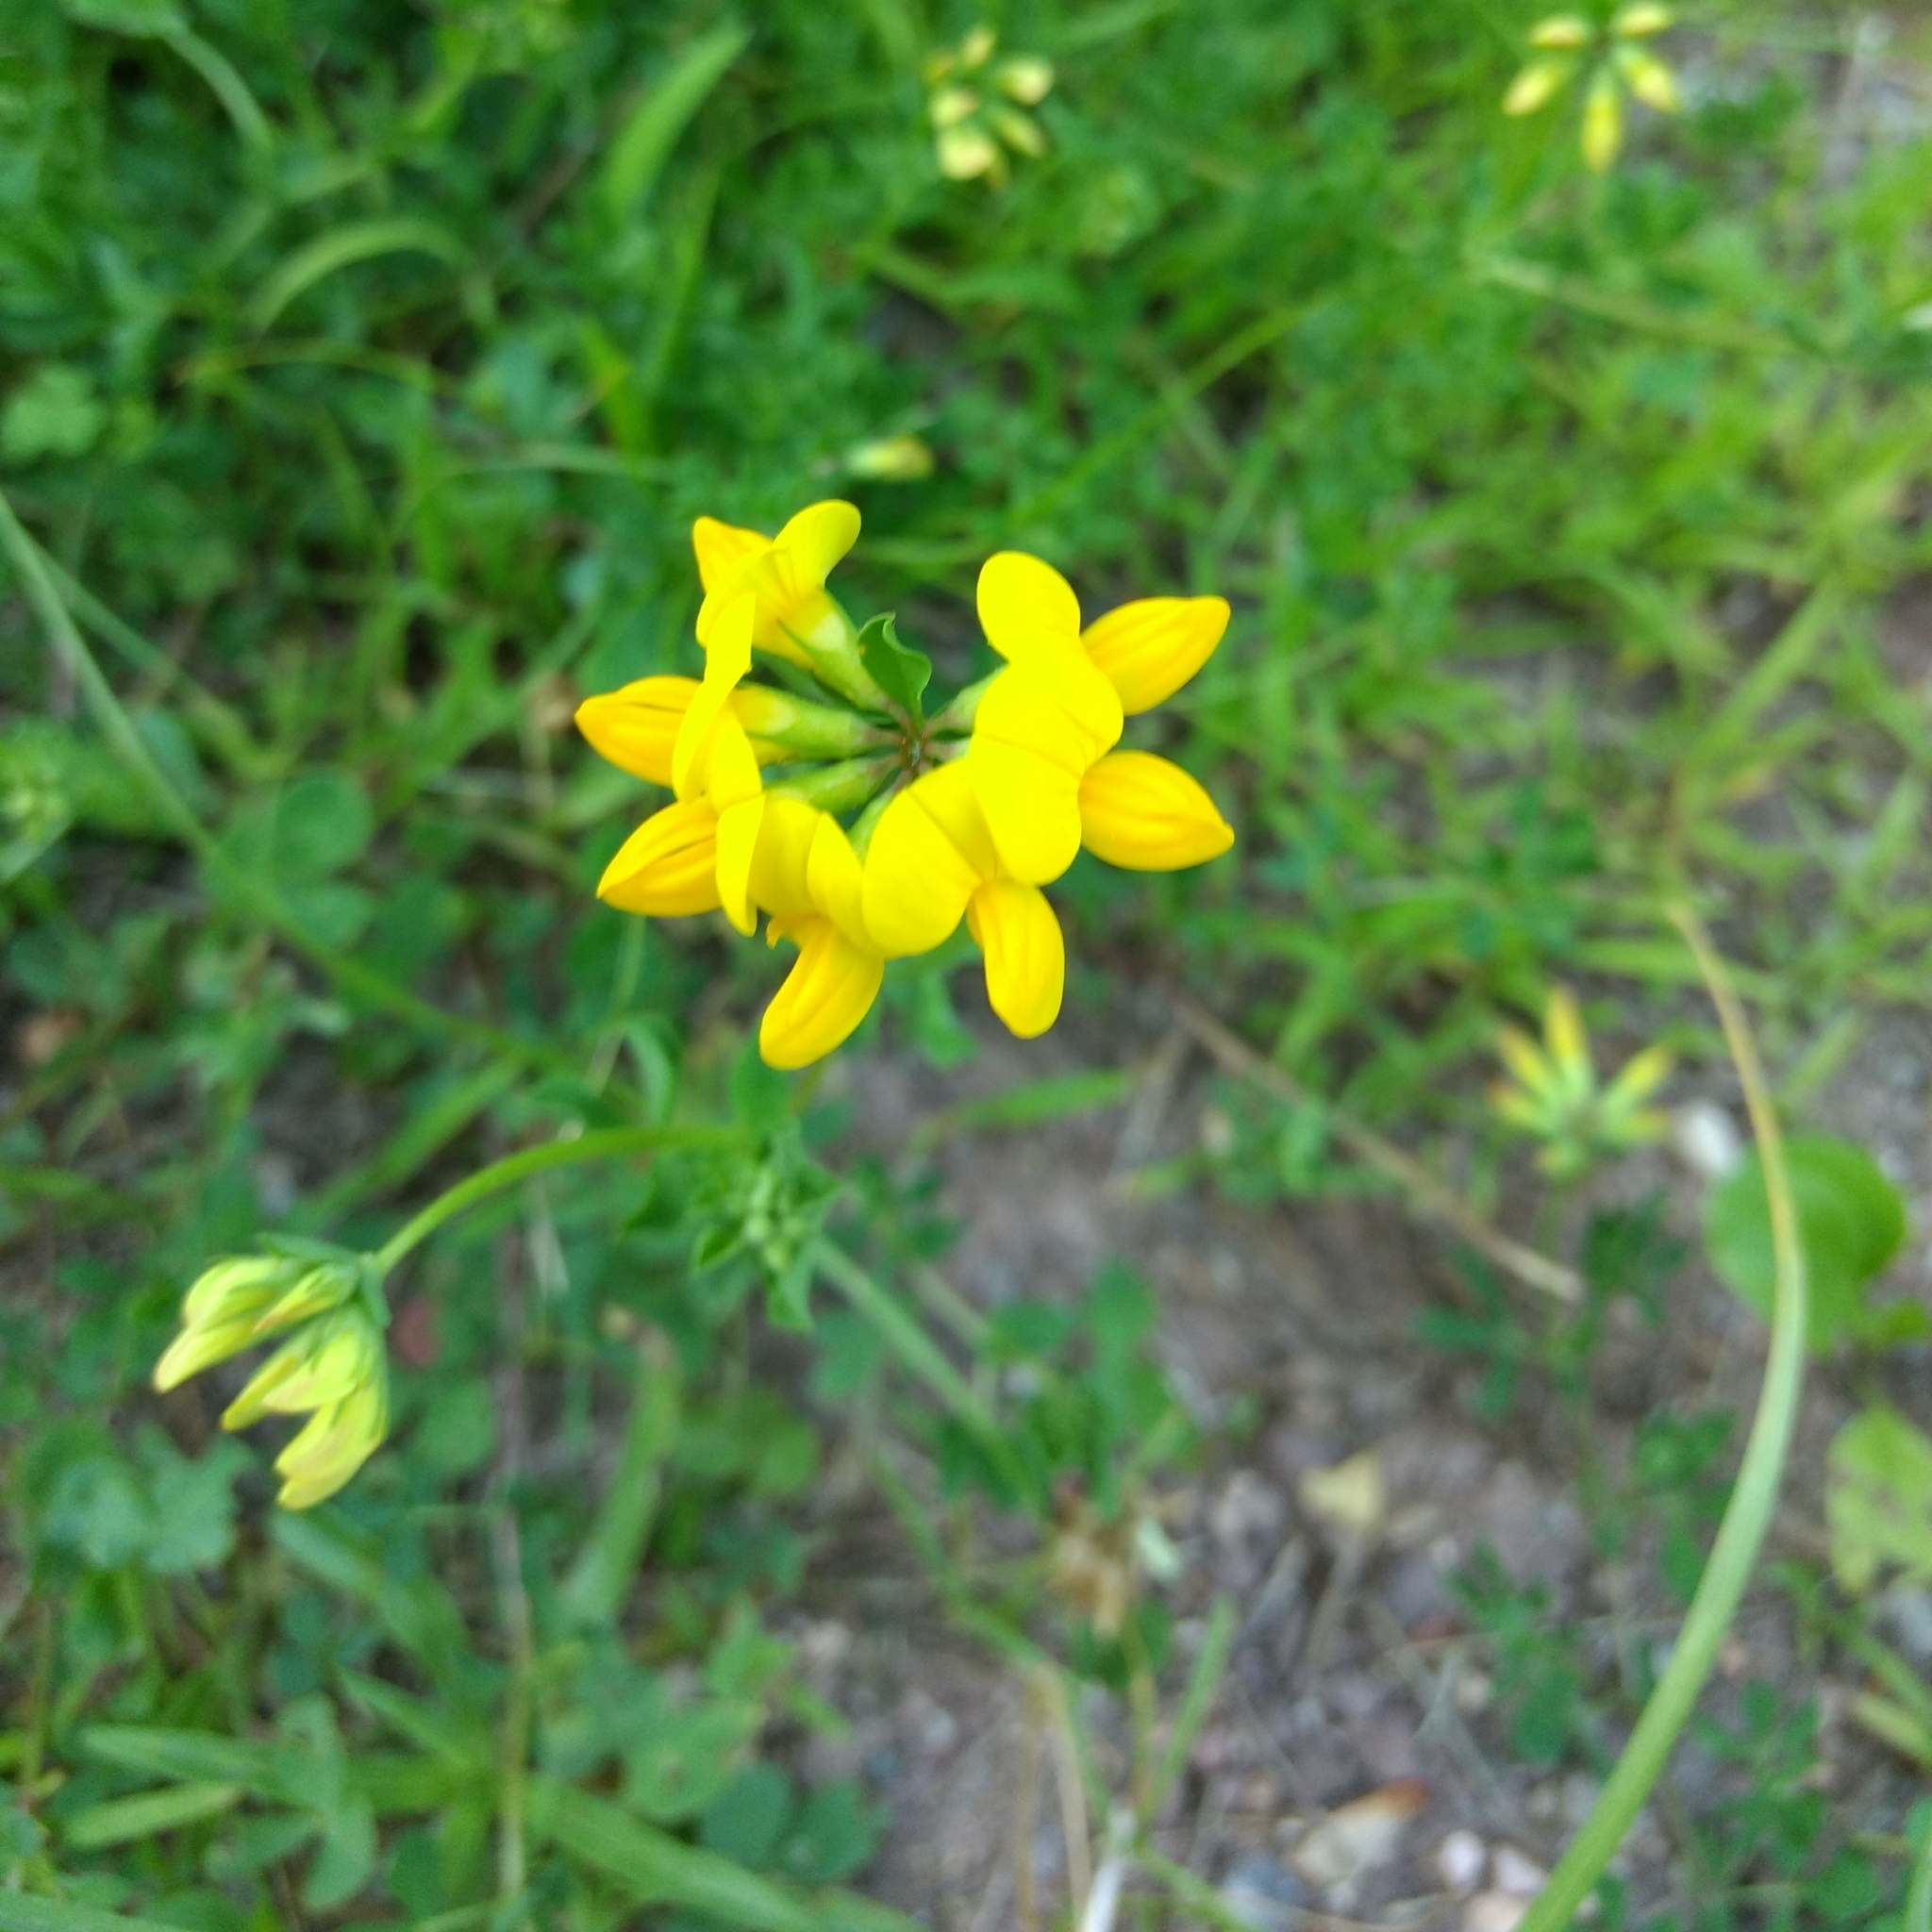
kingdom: Plantae
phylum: Tracheophyta
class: Magnoliopsida
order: Fabales
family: Fabaceae
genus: Lotus
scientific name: Lotus corniculatus
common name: Common bird's-foot-trefoil
